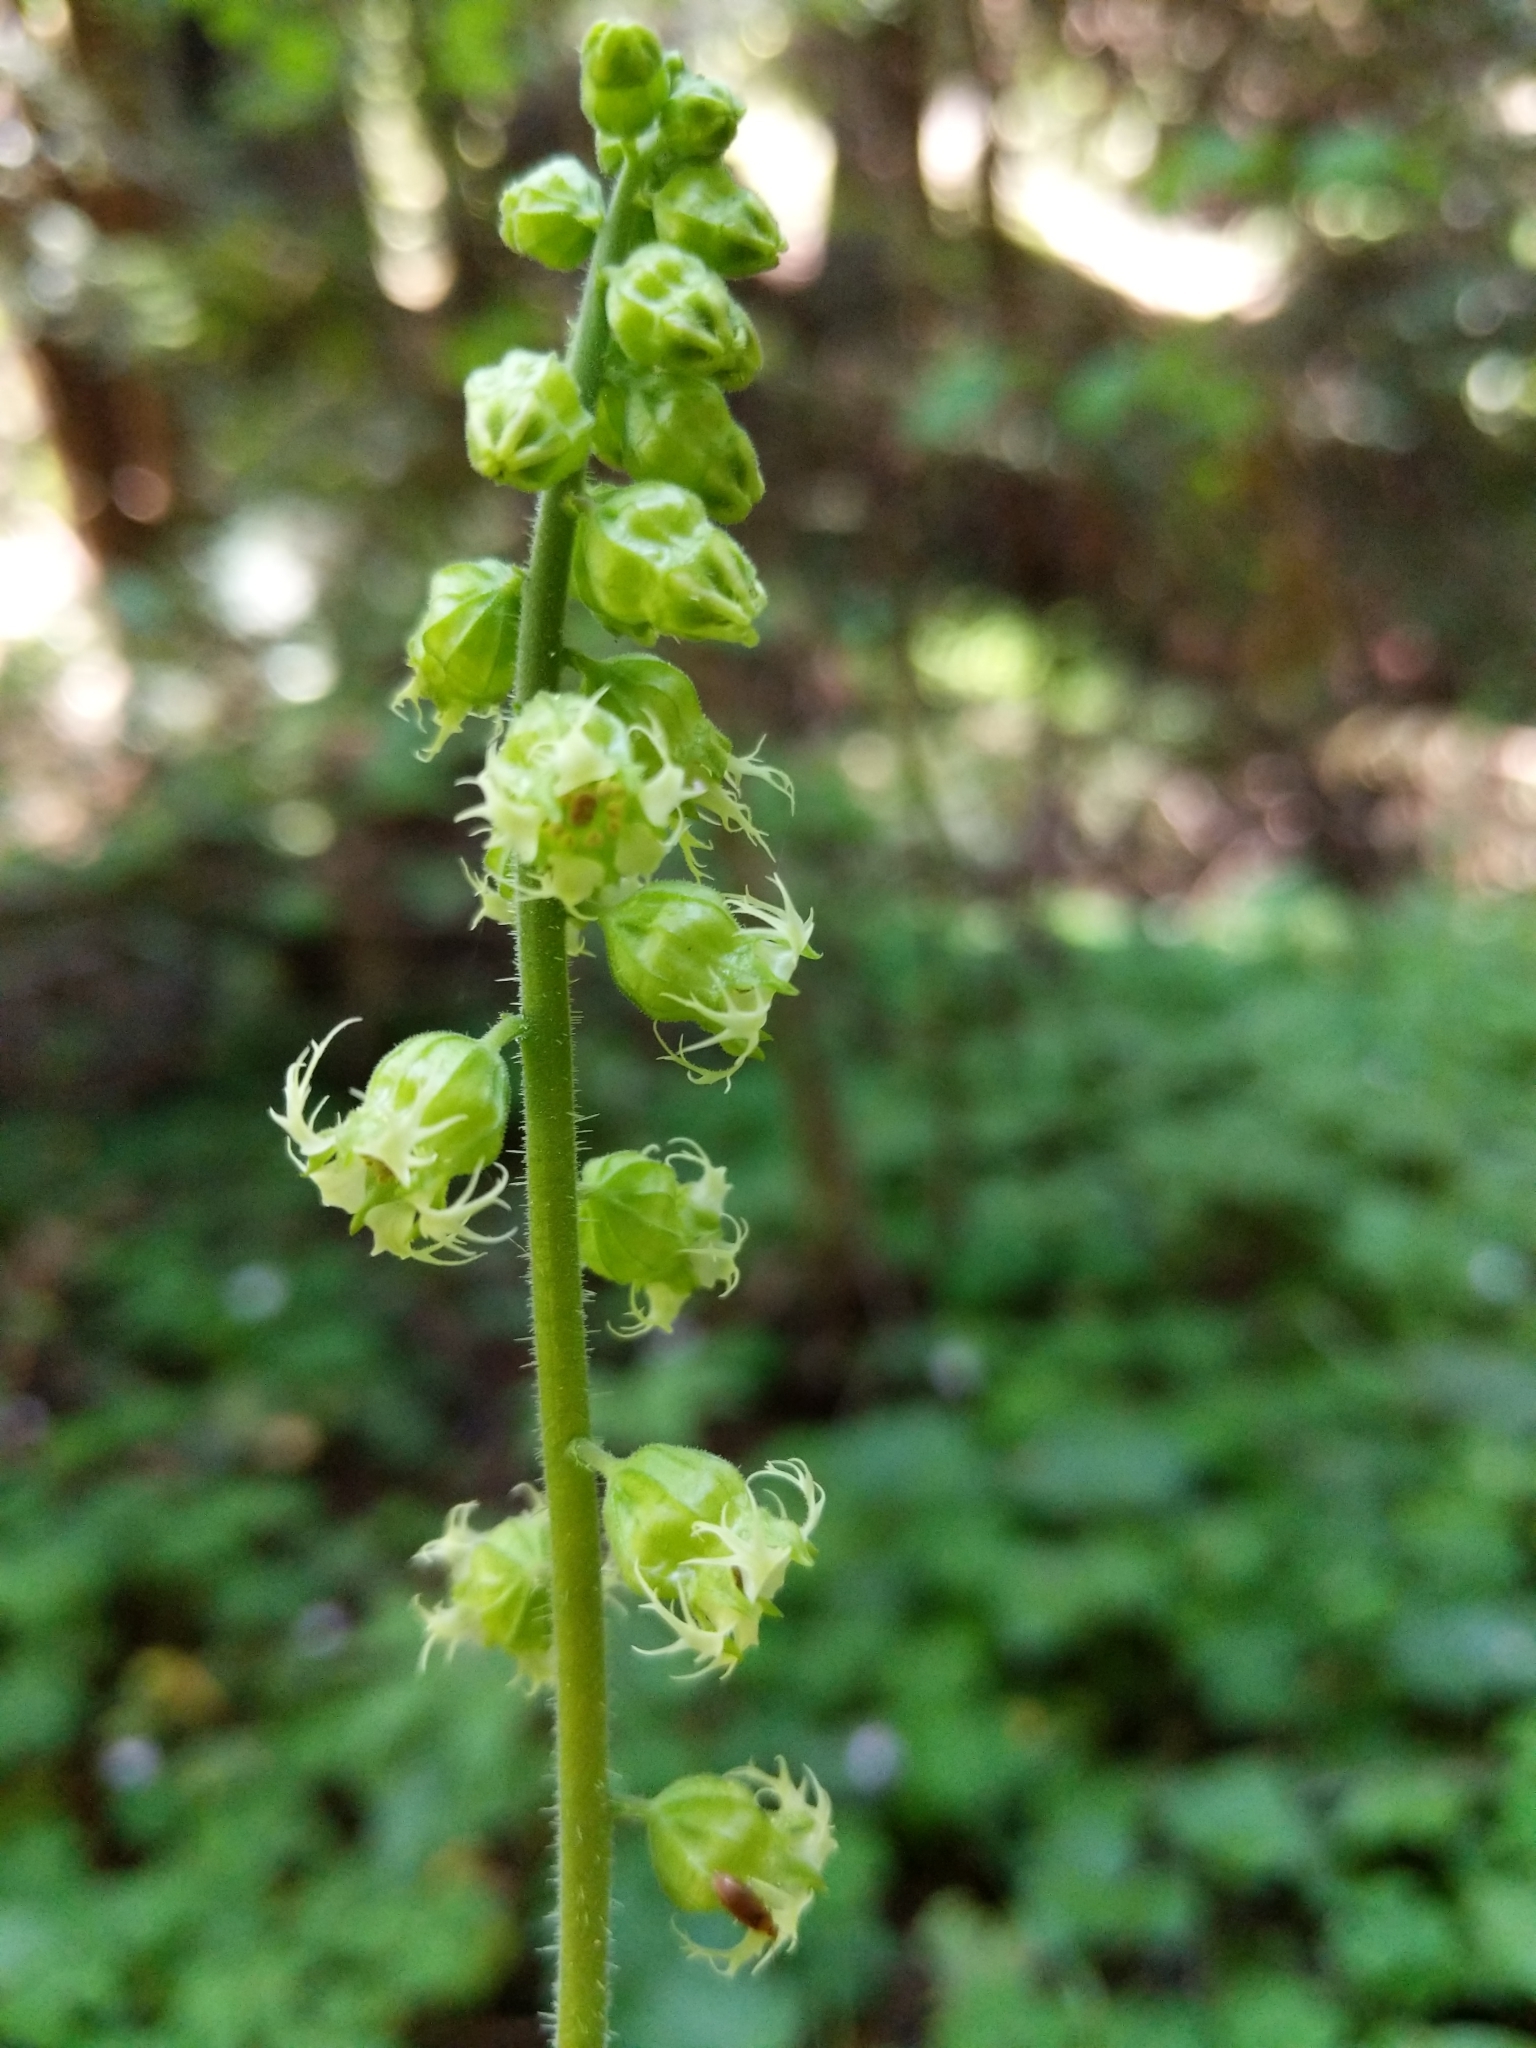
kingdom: Plantae
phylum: Tracheophyta
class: Magnoliopsida
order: Saxifragales
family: Saxifragaceae
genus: Tellima
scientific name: Tellima grandiflora
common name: Fringecups
